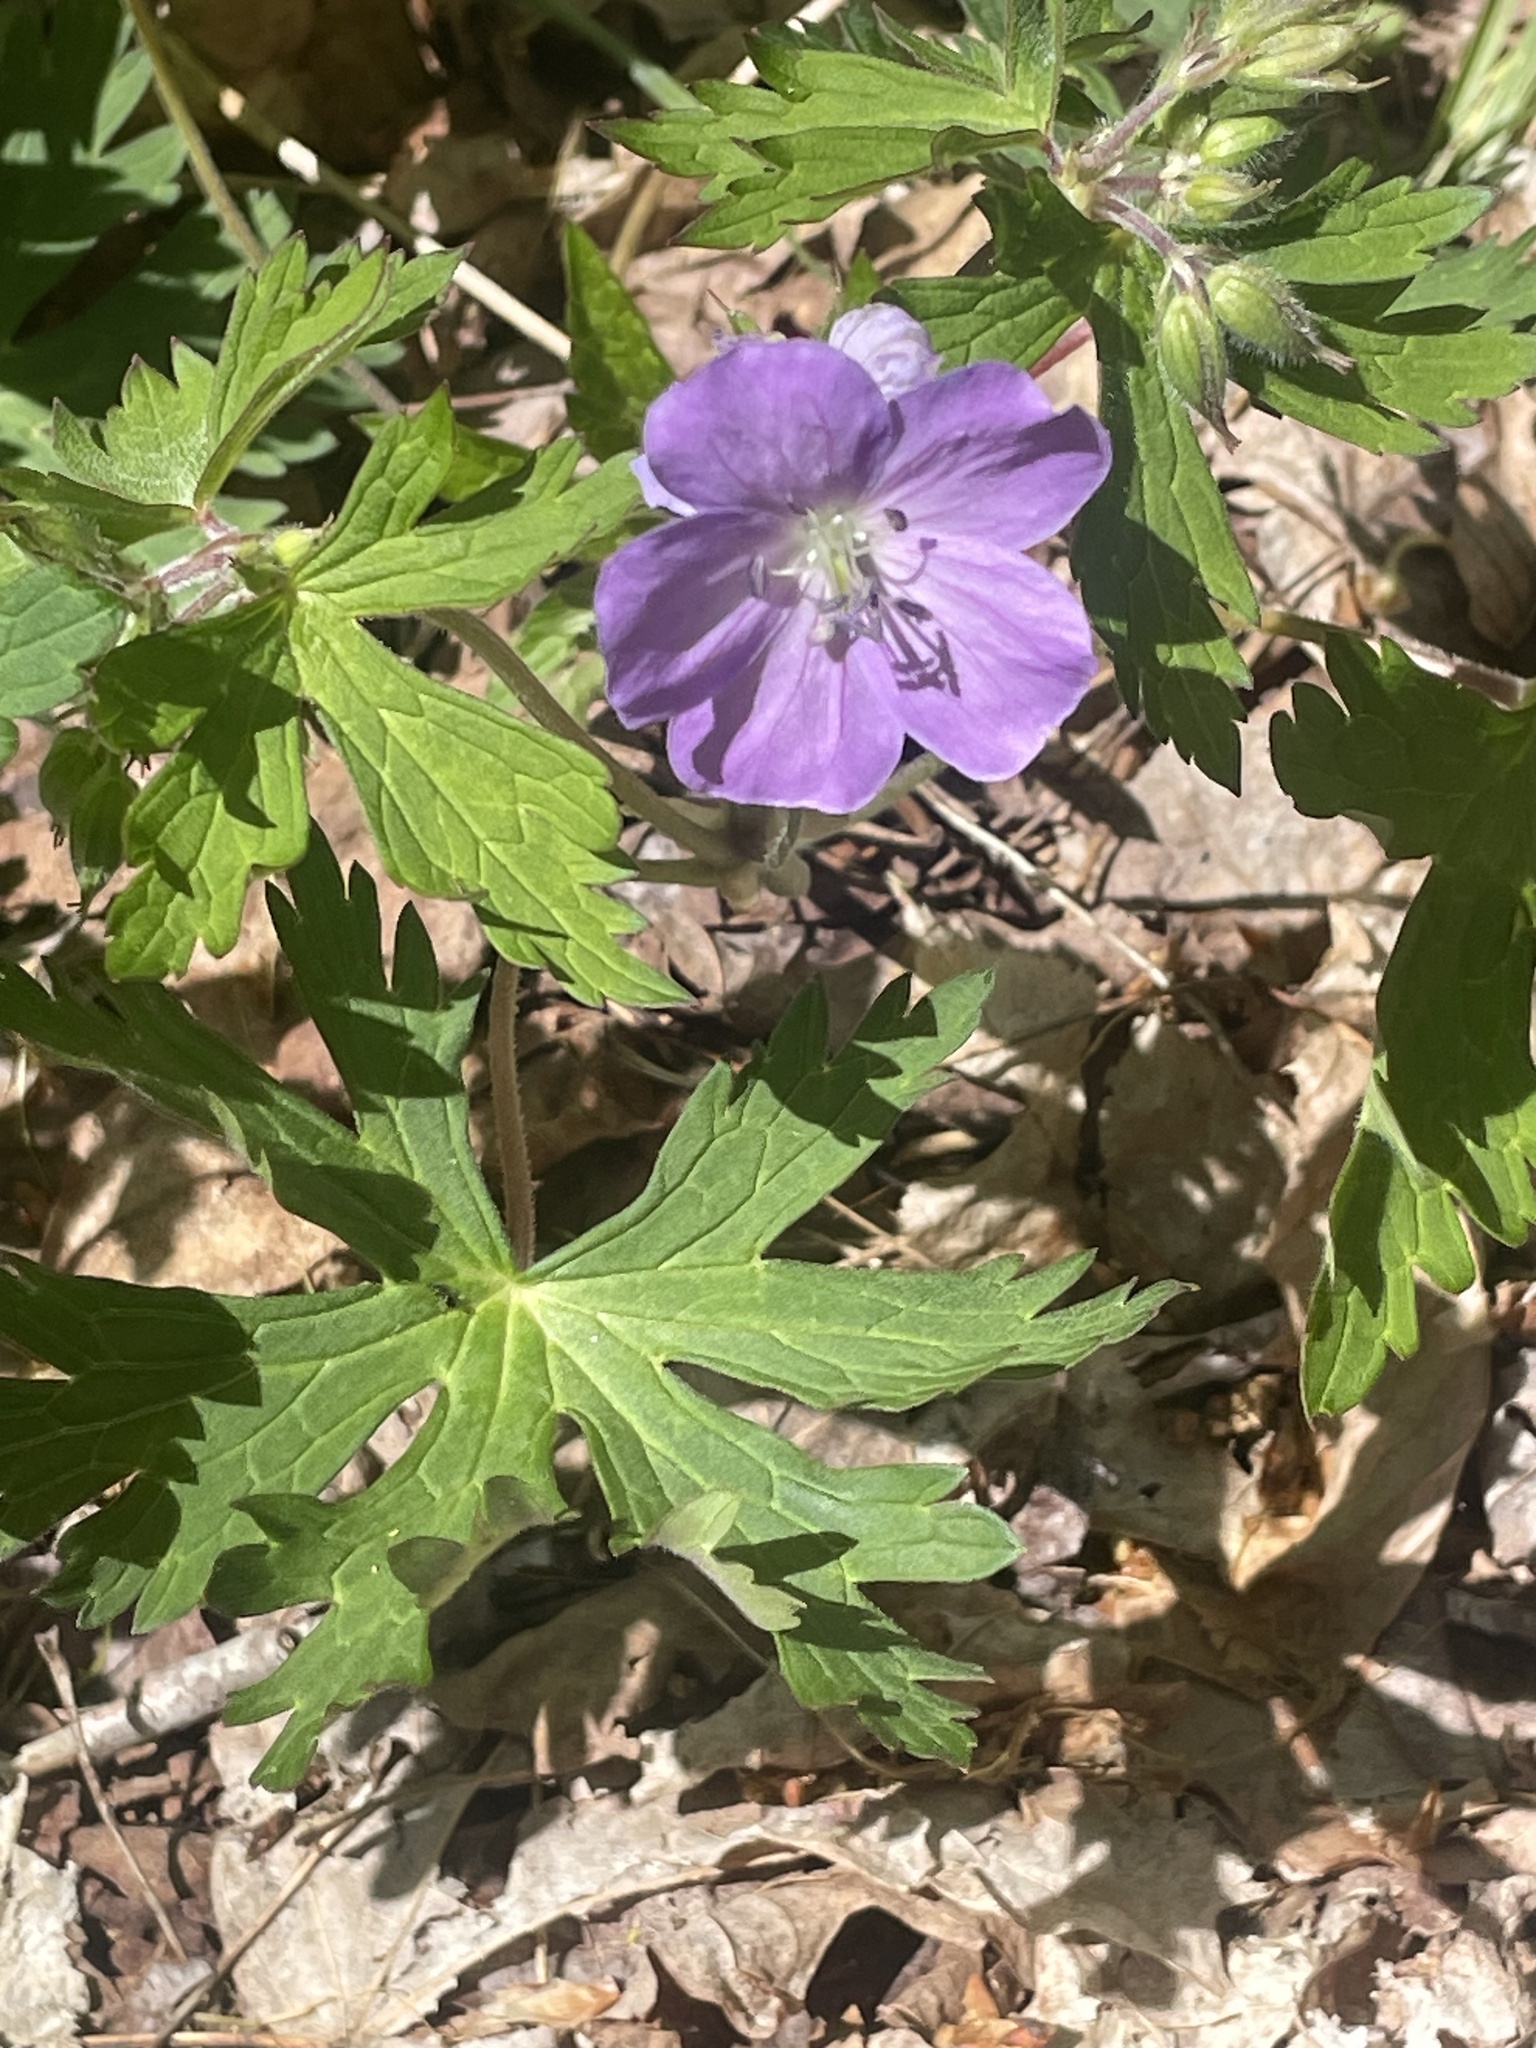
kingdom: Plantae
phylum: Tracheophyta
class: Magnoliopsida
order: Geraniales
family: Geraniaceae
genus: Geranium
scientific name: Geranium maculatum
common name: Spotted geranium
